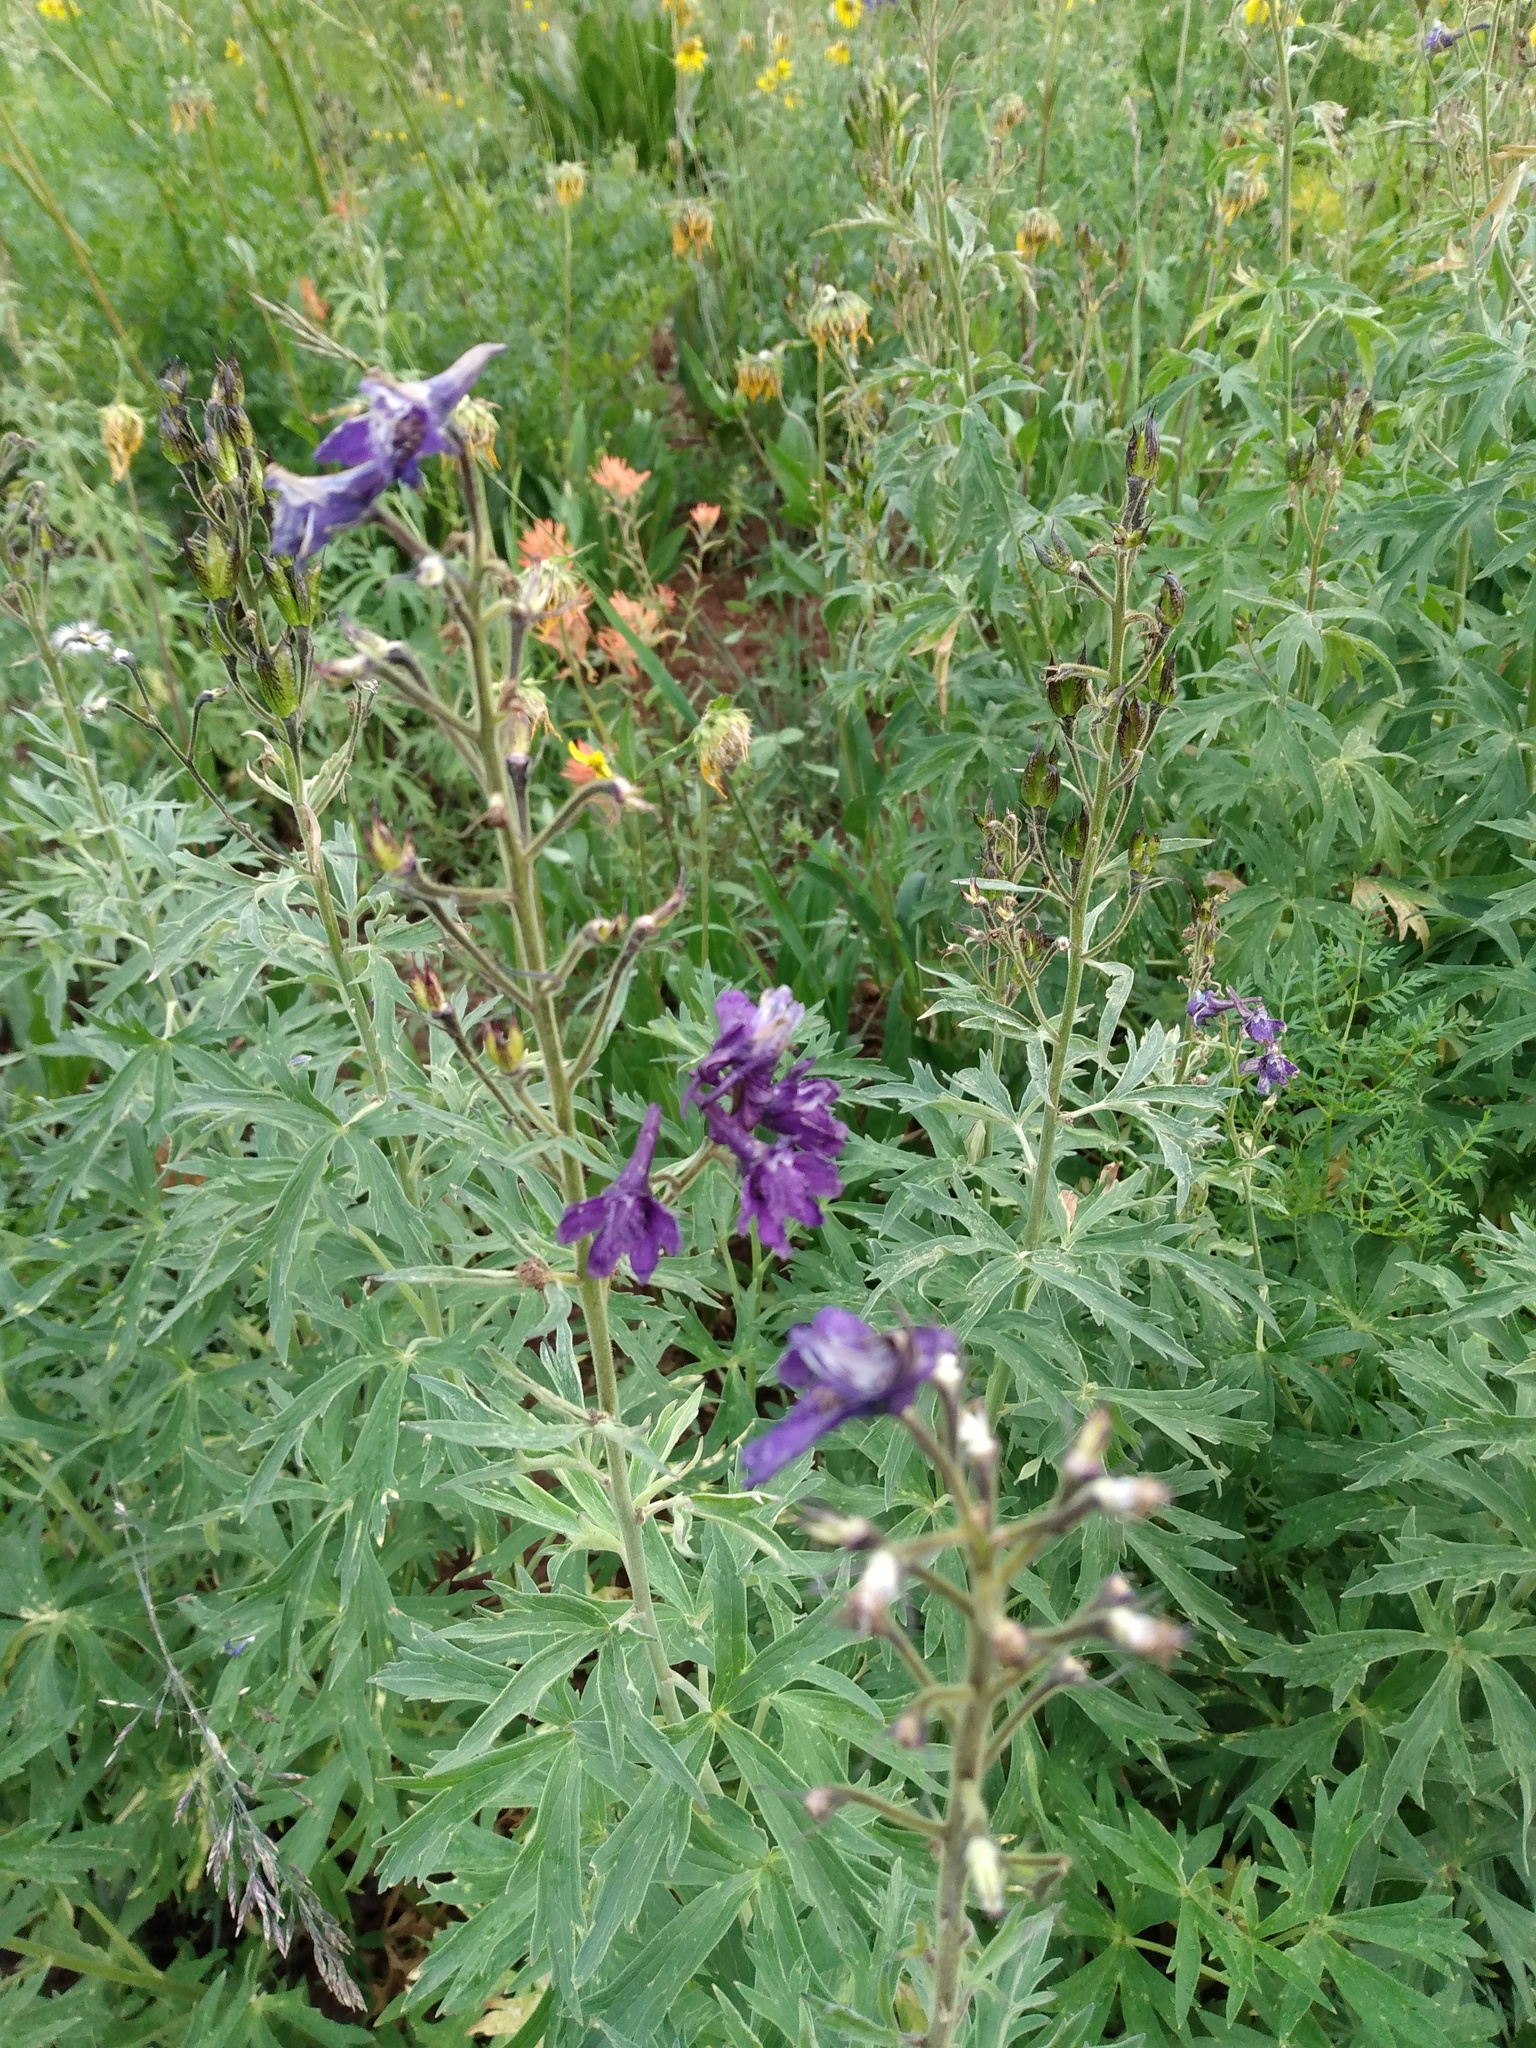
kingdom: Plantae
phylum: Tracheophyta
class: Magnoliopsida
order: Ranunculales
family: Ranunculaceae
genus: Delphinium
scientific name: Delphinium barbeyi
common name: Subalpine larkspur
